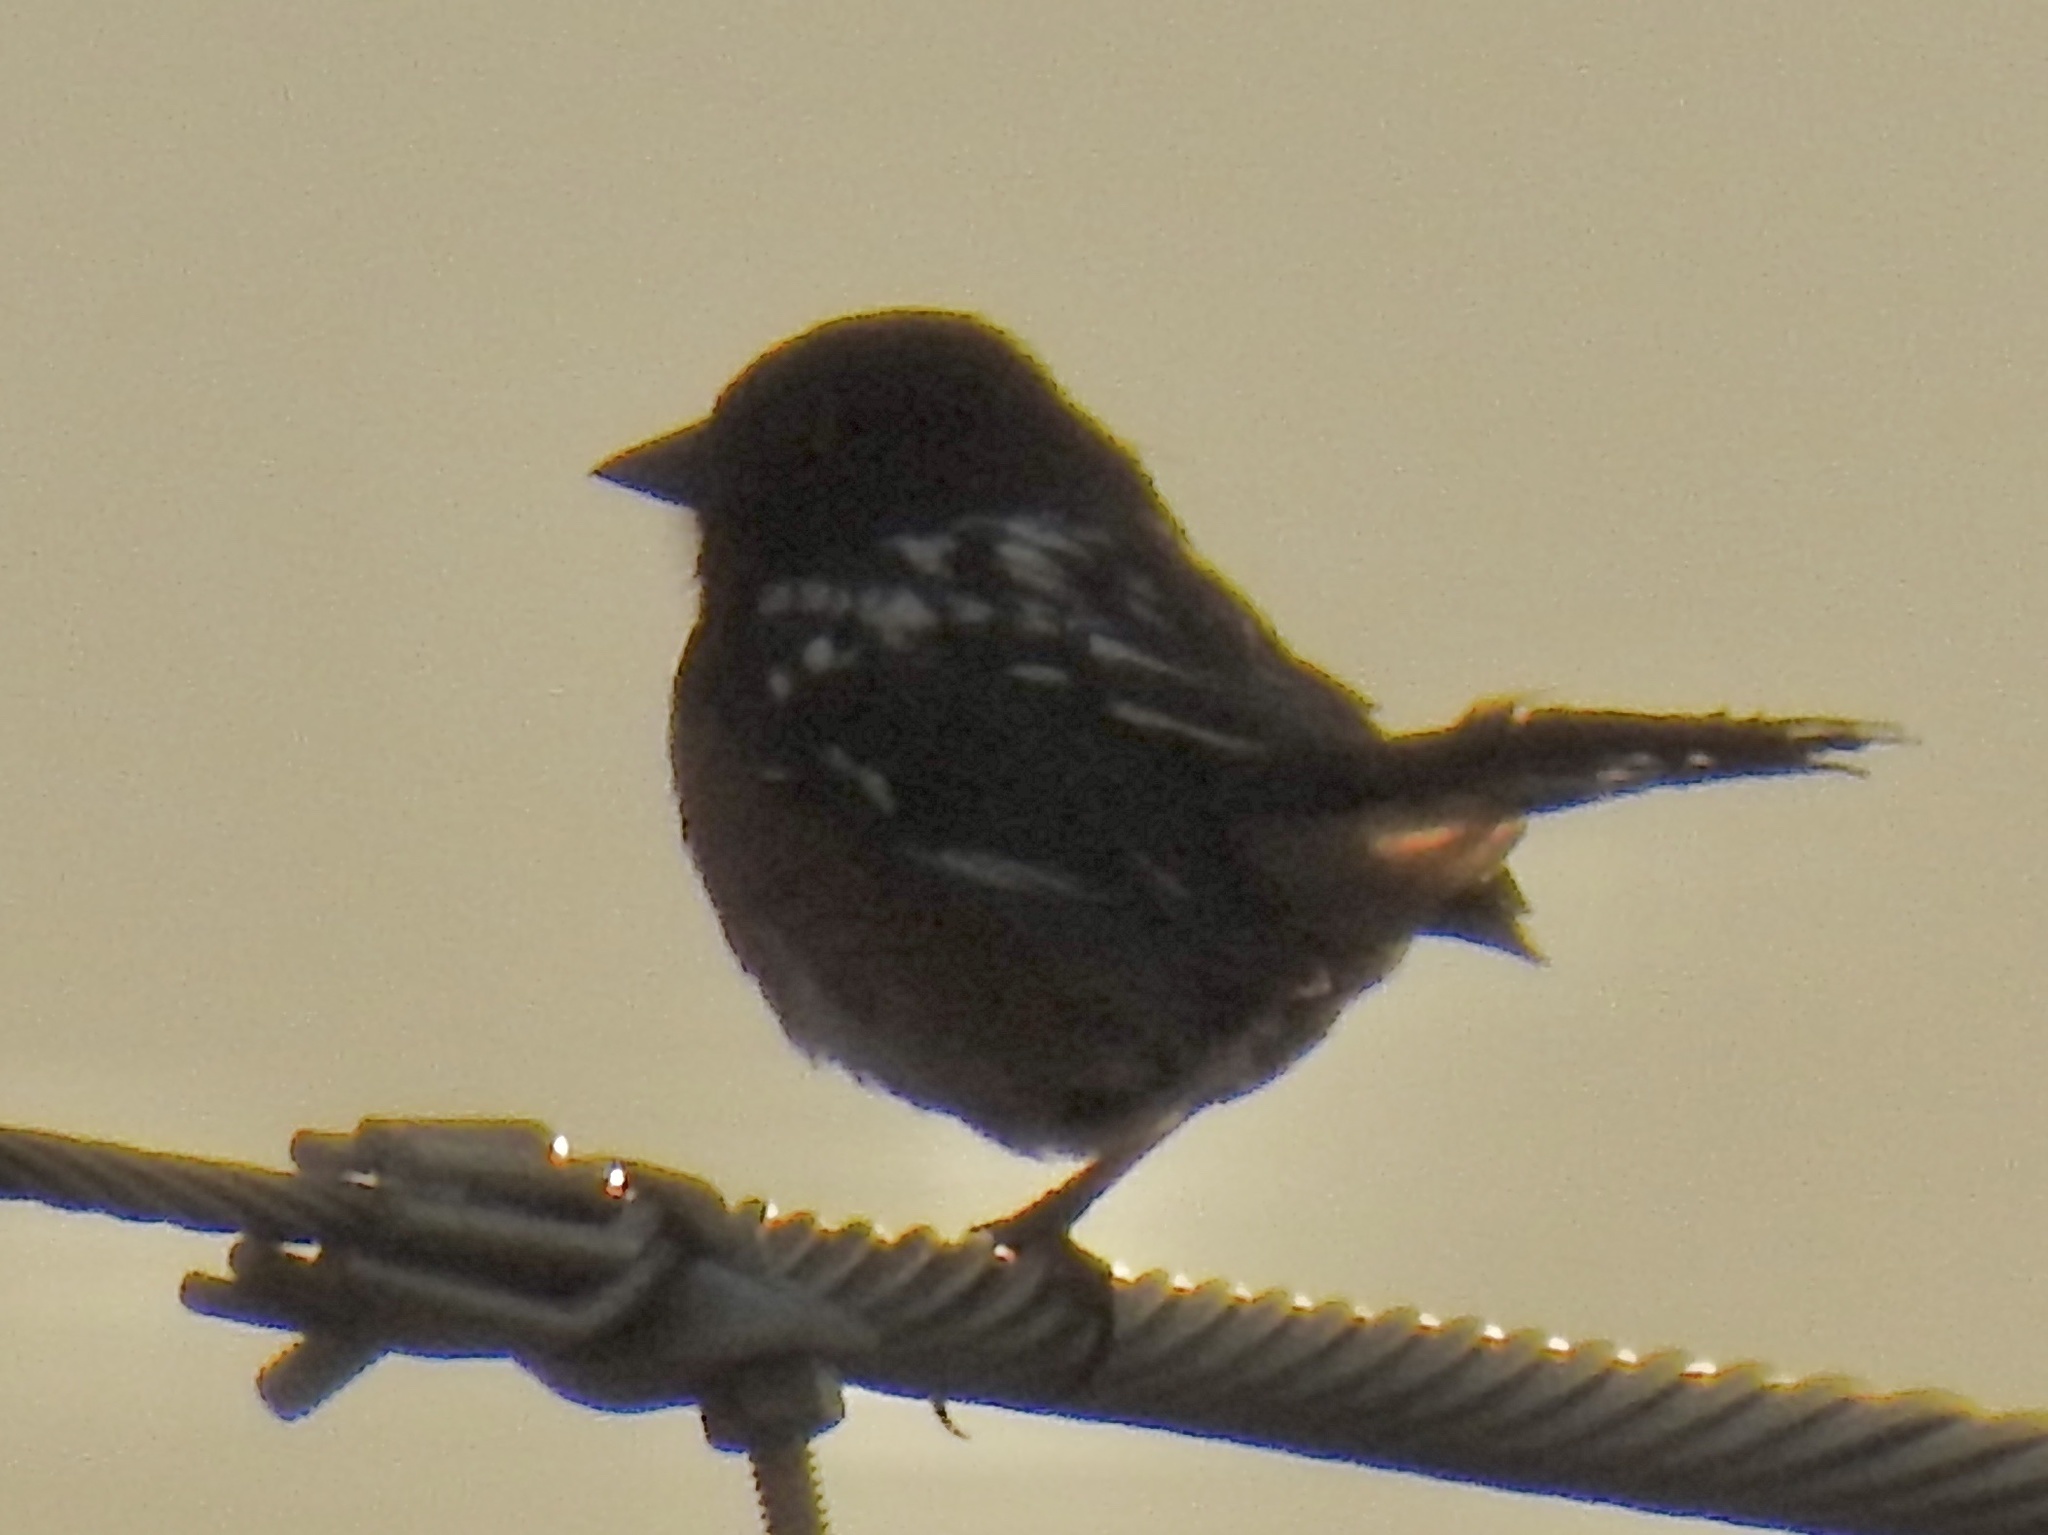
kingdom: Animalia
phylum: Chordata
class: Aves
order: Passeriformes
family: Passerellidae
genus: Pipilo
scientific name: Pipilo maculatus
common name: Spotted towhee
